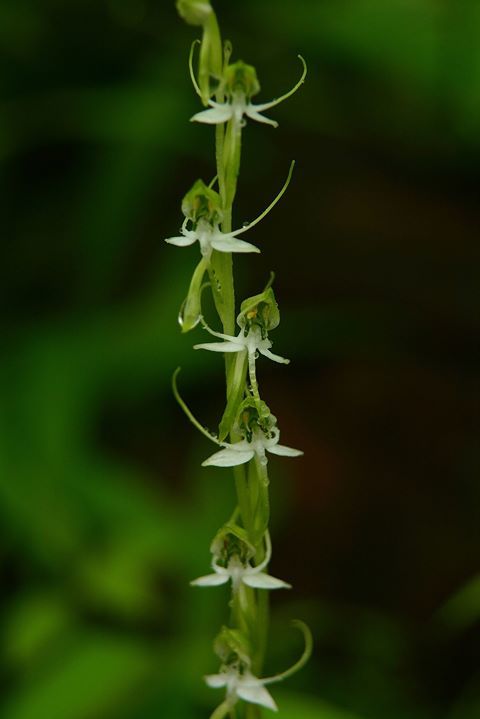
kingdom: Plantae
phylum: Tracheophyta
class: Liliopsida
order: Asparagales
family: Orchidaceae
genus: Habenaria
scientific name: Habenaria diphylla
